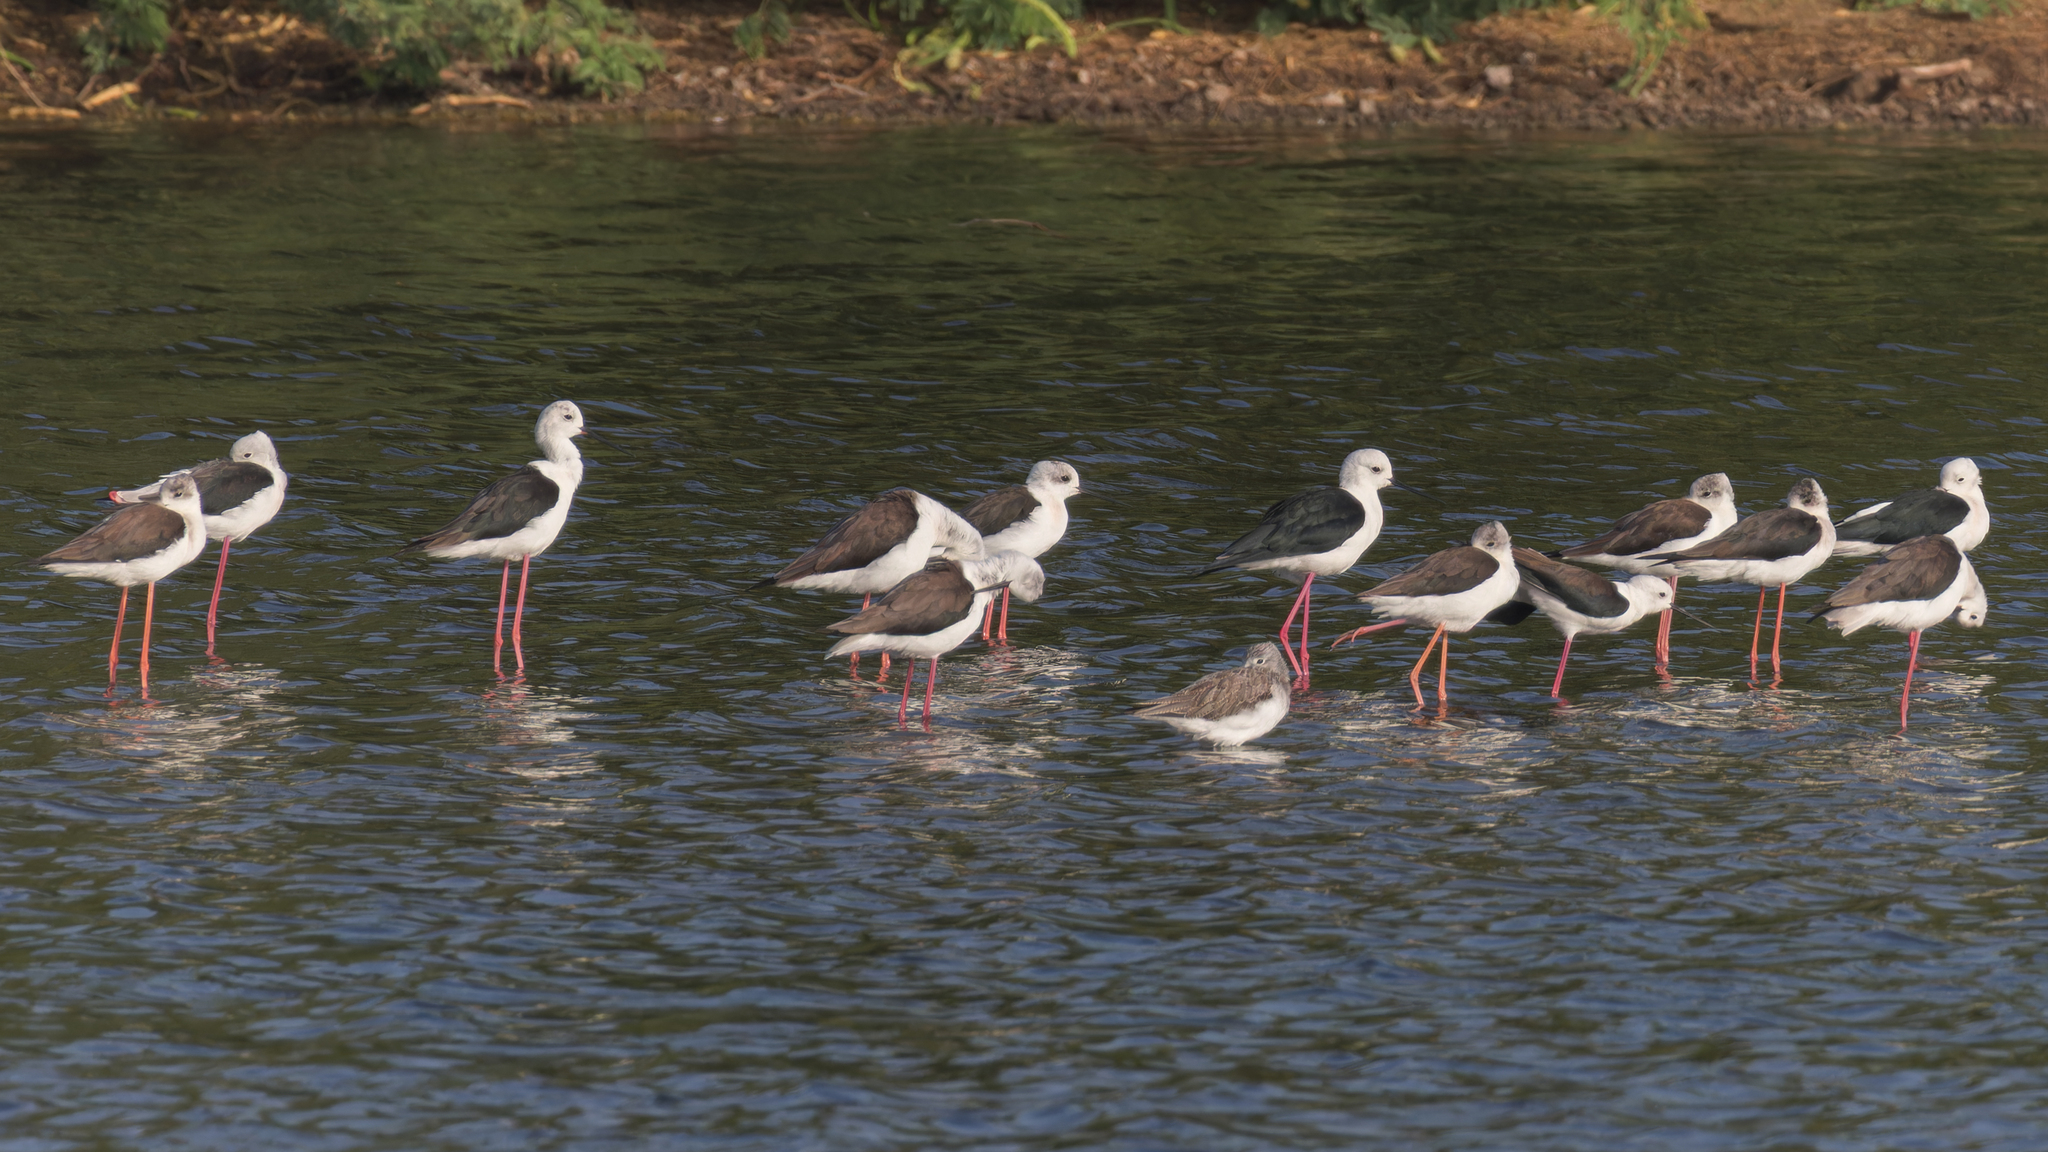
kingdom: Animalia
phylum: Chordata
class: Aves
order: Charadriiformes
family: Recurvirostridae
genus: Himantopus
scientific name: Himantopus himantopus
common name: Black-winged stilt
